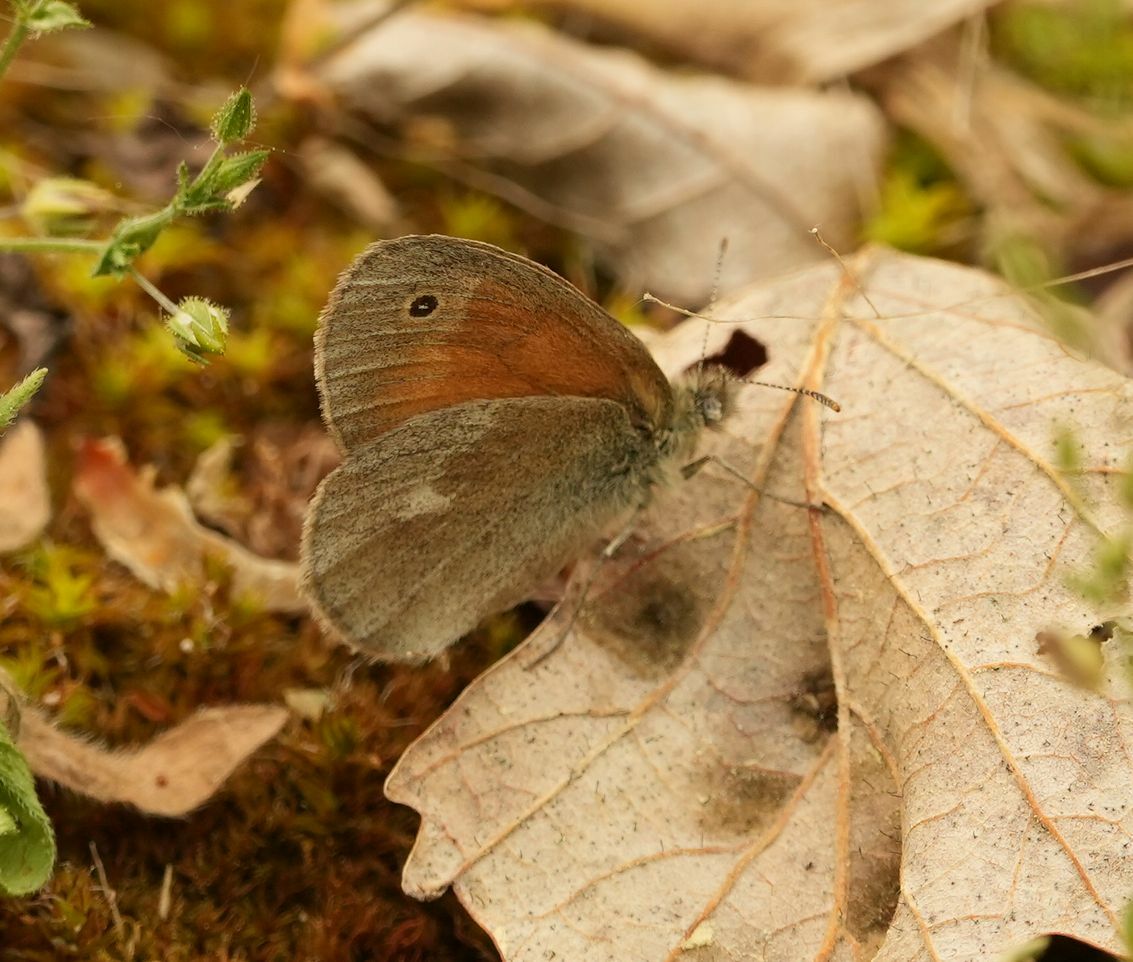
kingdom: Animalia
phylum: Arthropoda
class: Insecta
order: Lepidoptera
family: Nymphalidae
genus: Coenonympha
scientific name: Coenonympha california
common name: Common ringlet
